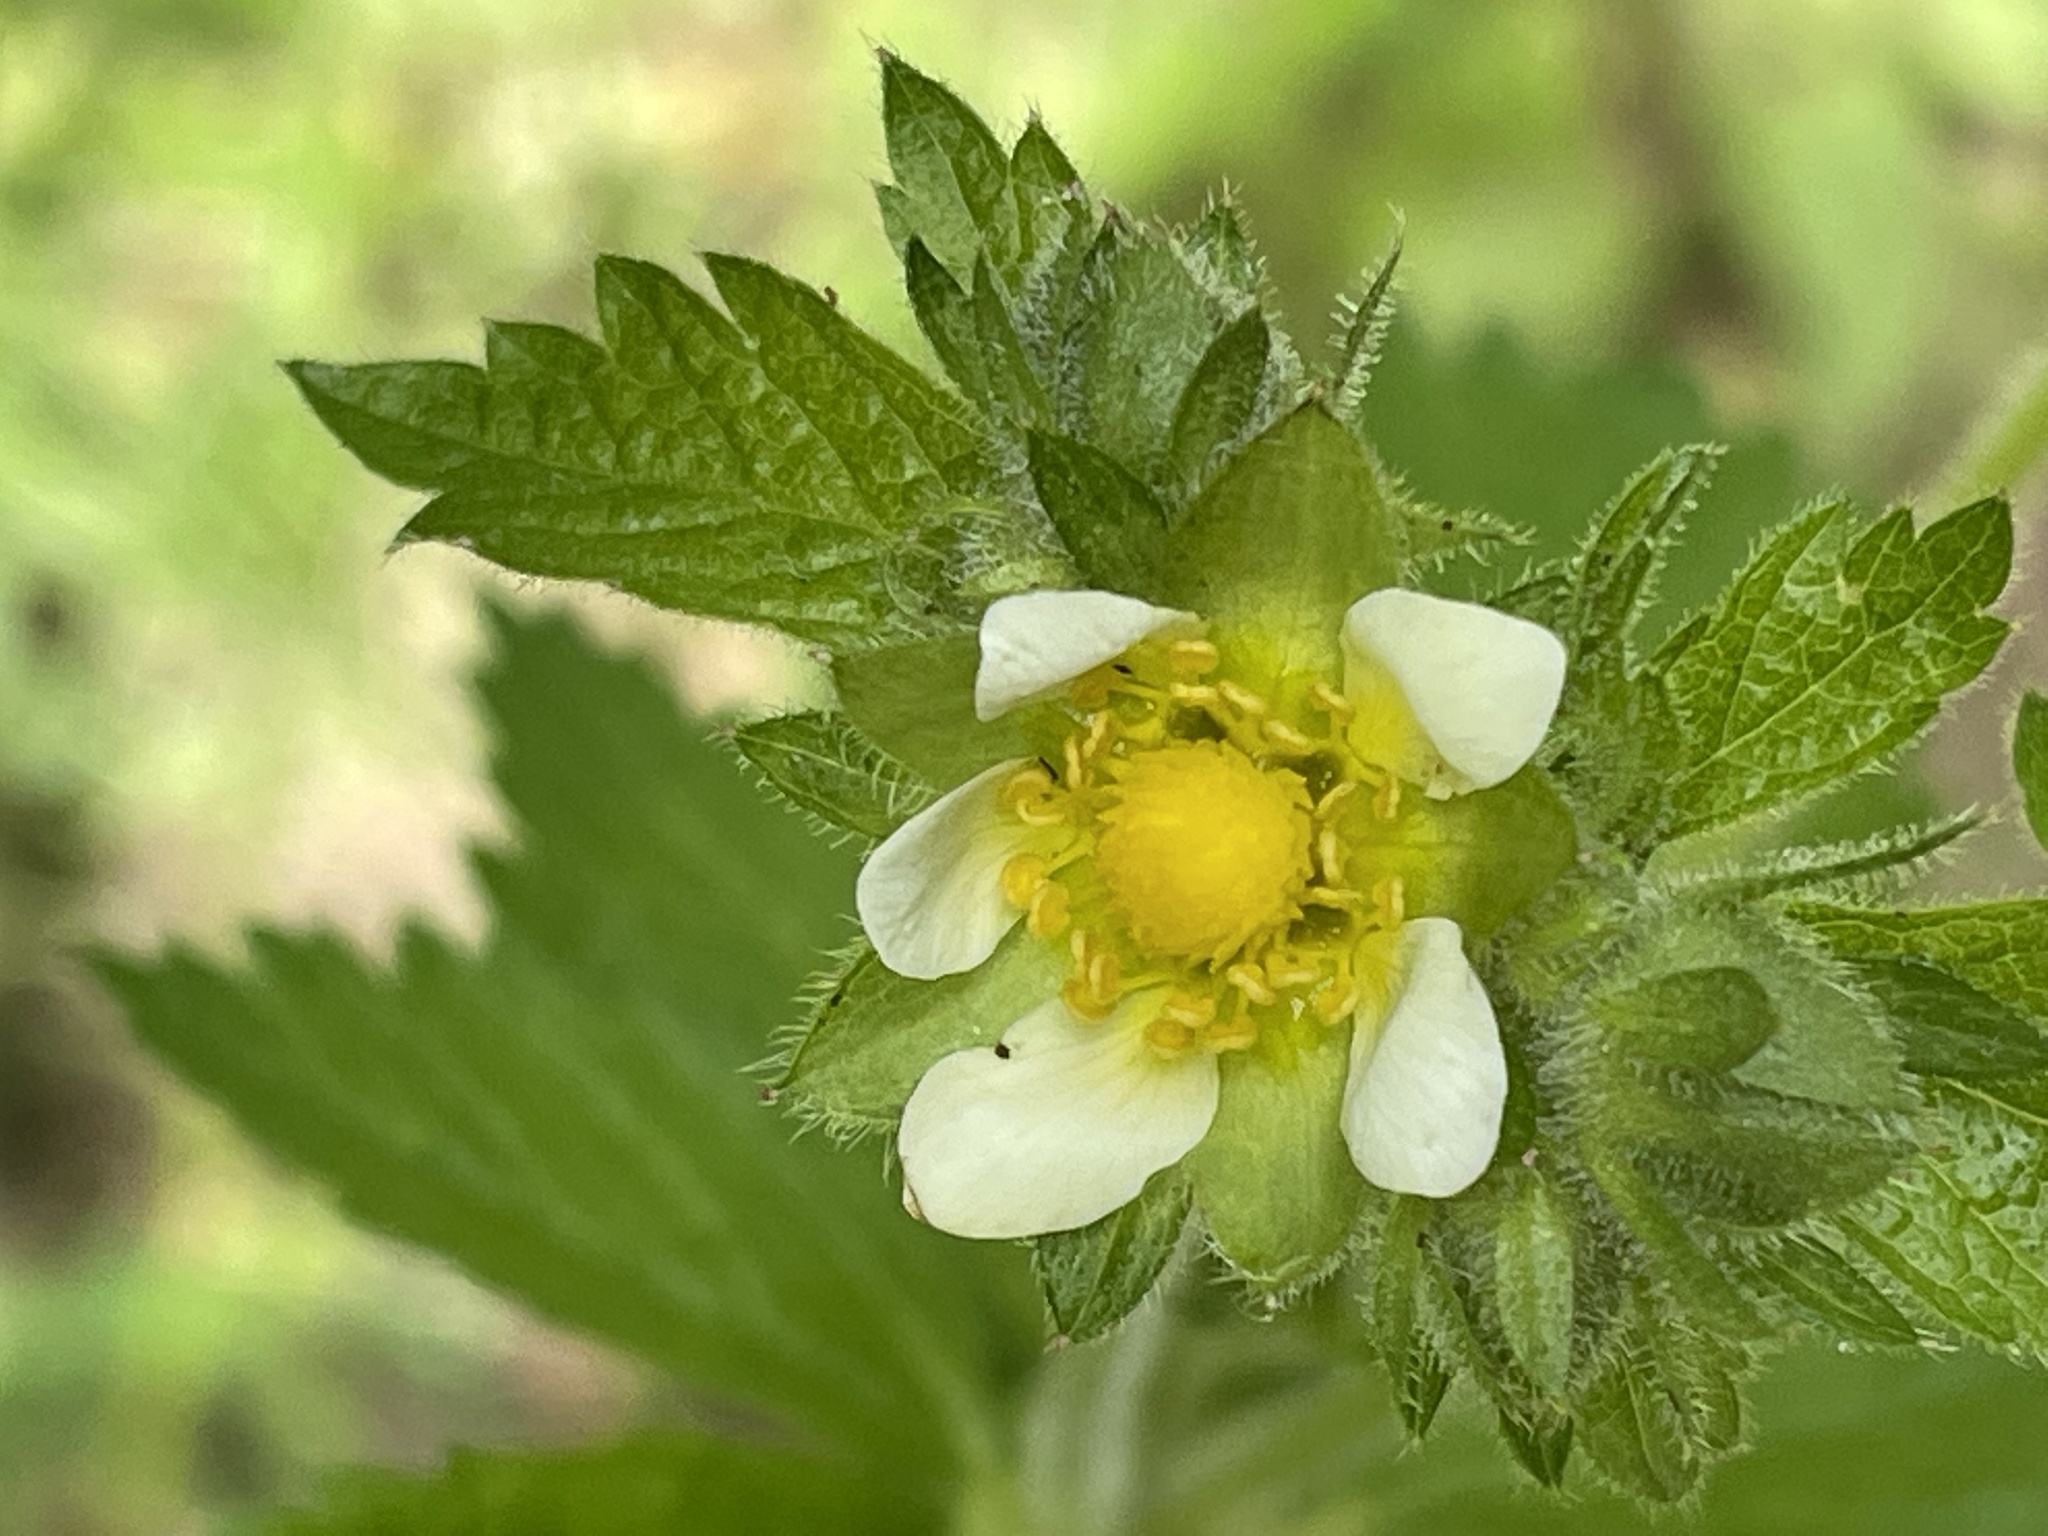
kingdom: Plantae
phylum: Tracheophyta
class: Magnoliopsida
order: Rosales
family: Rosaceae
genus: Drymocallis
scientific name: Drymocallis glandulosa
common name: Sticky cinquefoil
